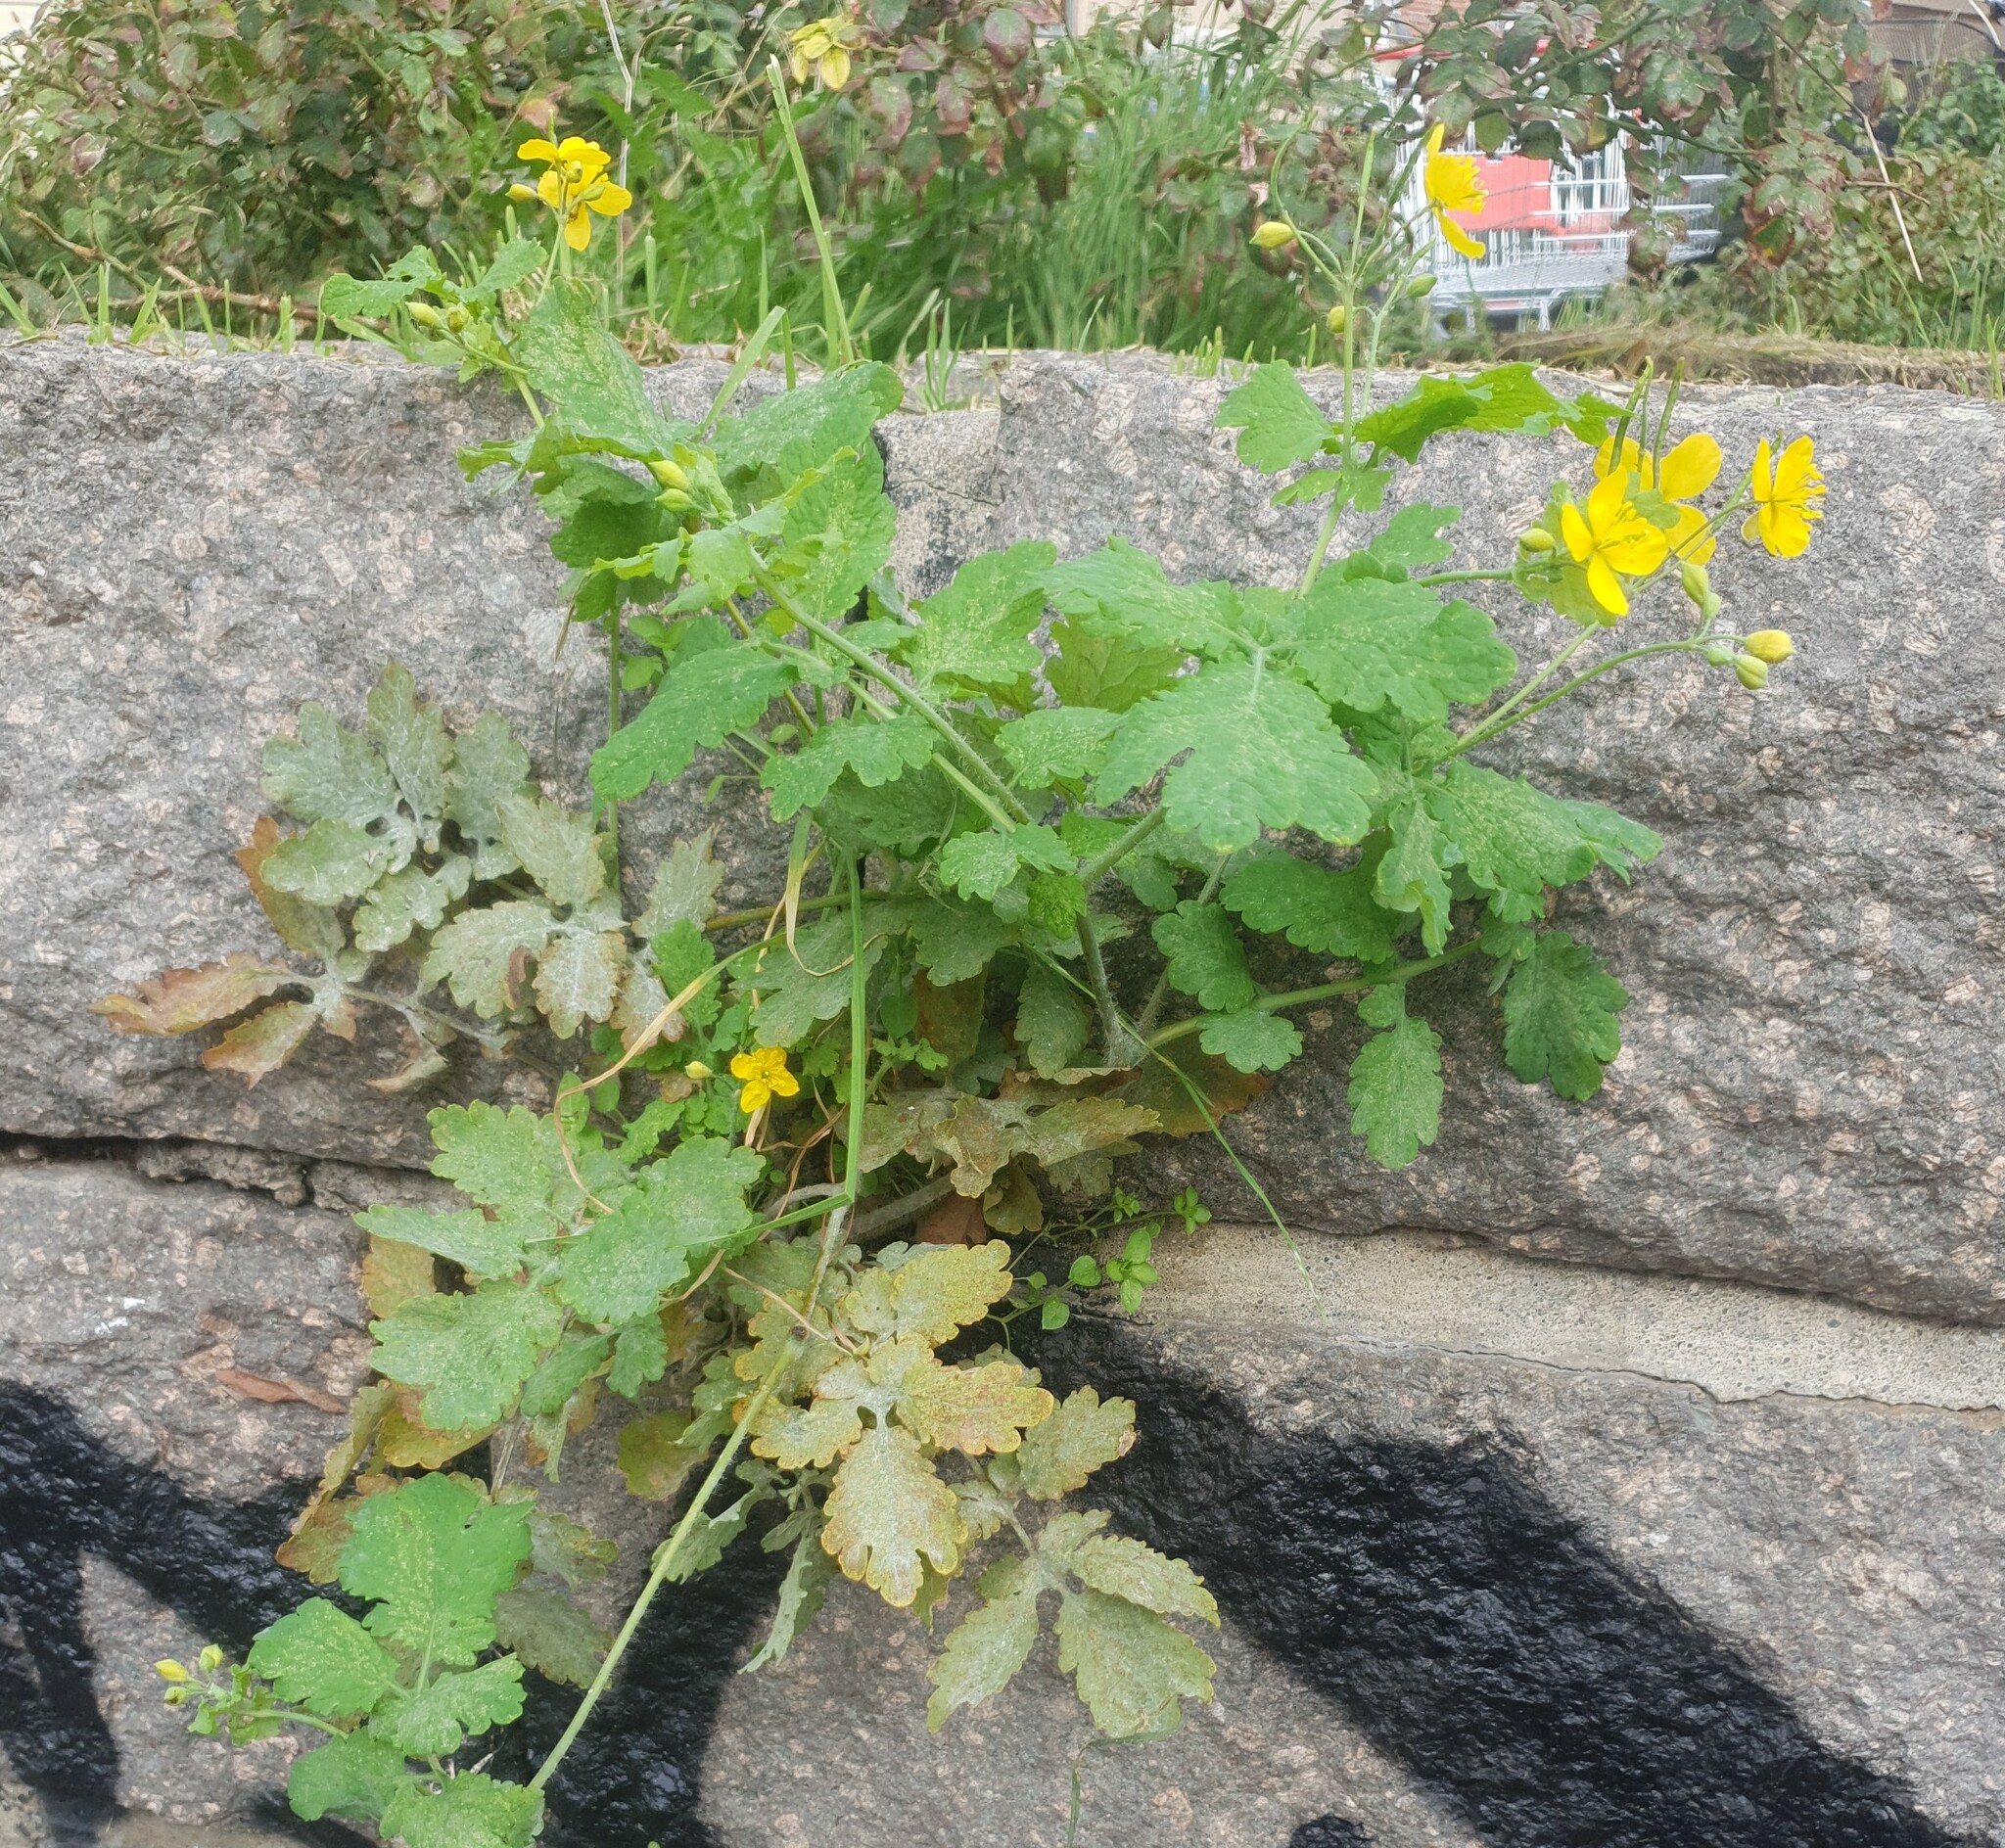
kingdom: Plantae
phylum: Tracheophyta
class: Magnoliopsida
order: Ranunculales
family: Papaveraceae
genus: Chelidonium
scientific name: Chelidonium majus
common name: Greater celandine
